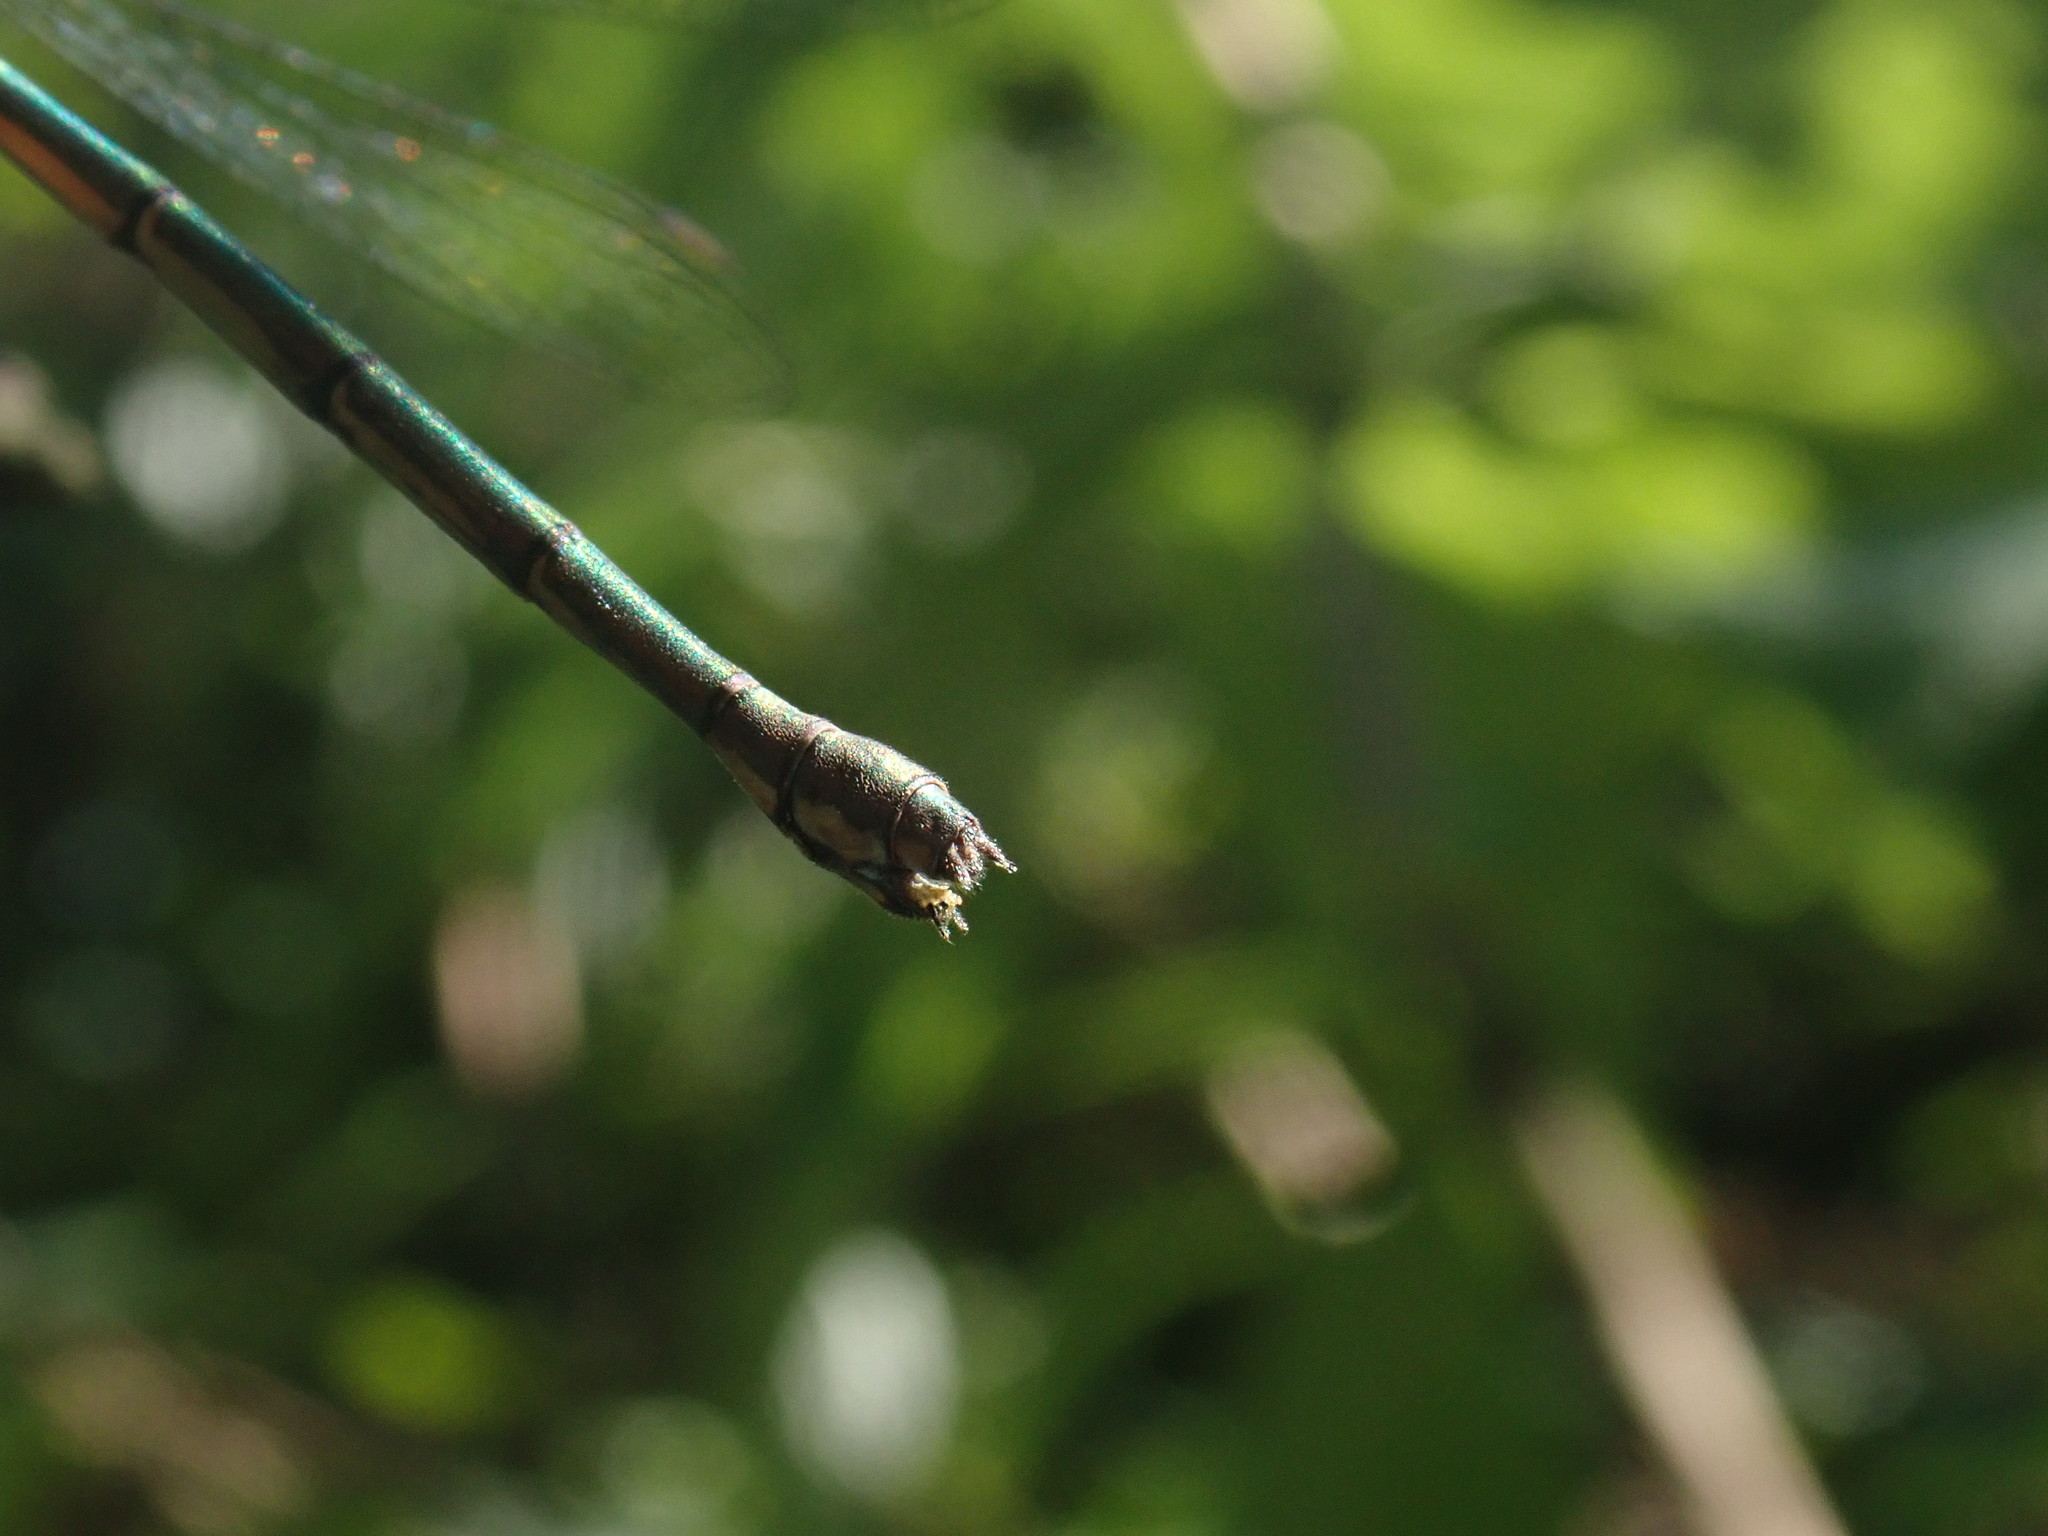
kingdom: Animalia
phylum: Arthropoda
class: Insecta
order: Odonata
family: Lestidae
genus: Chalcolestes
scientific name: Chalcolestes viridis
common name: Green emerald damselfly
